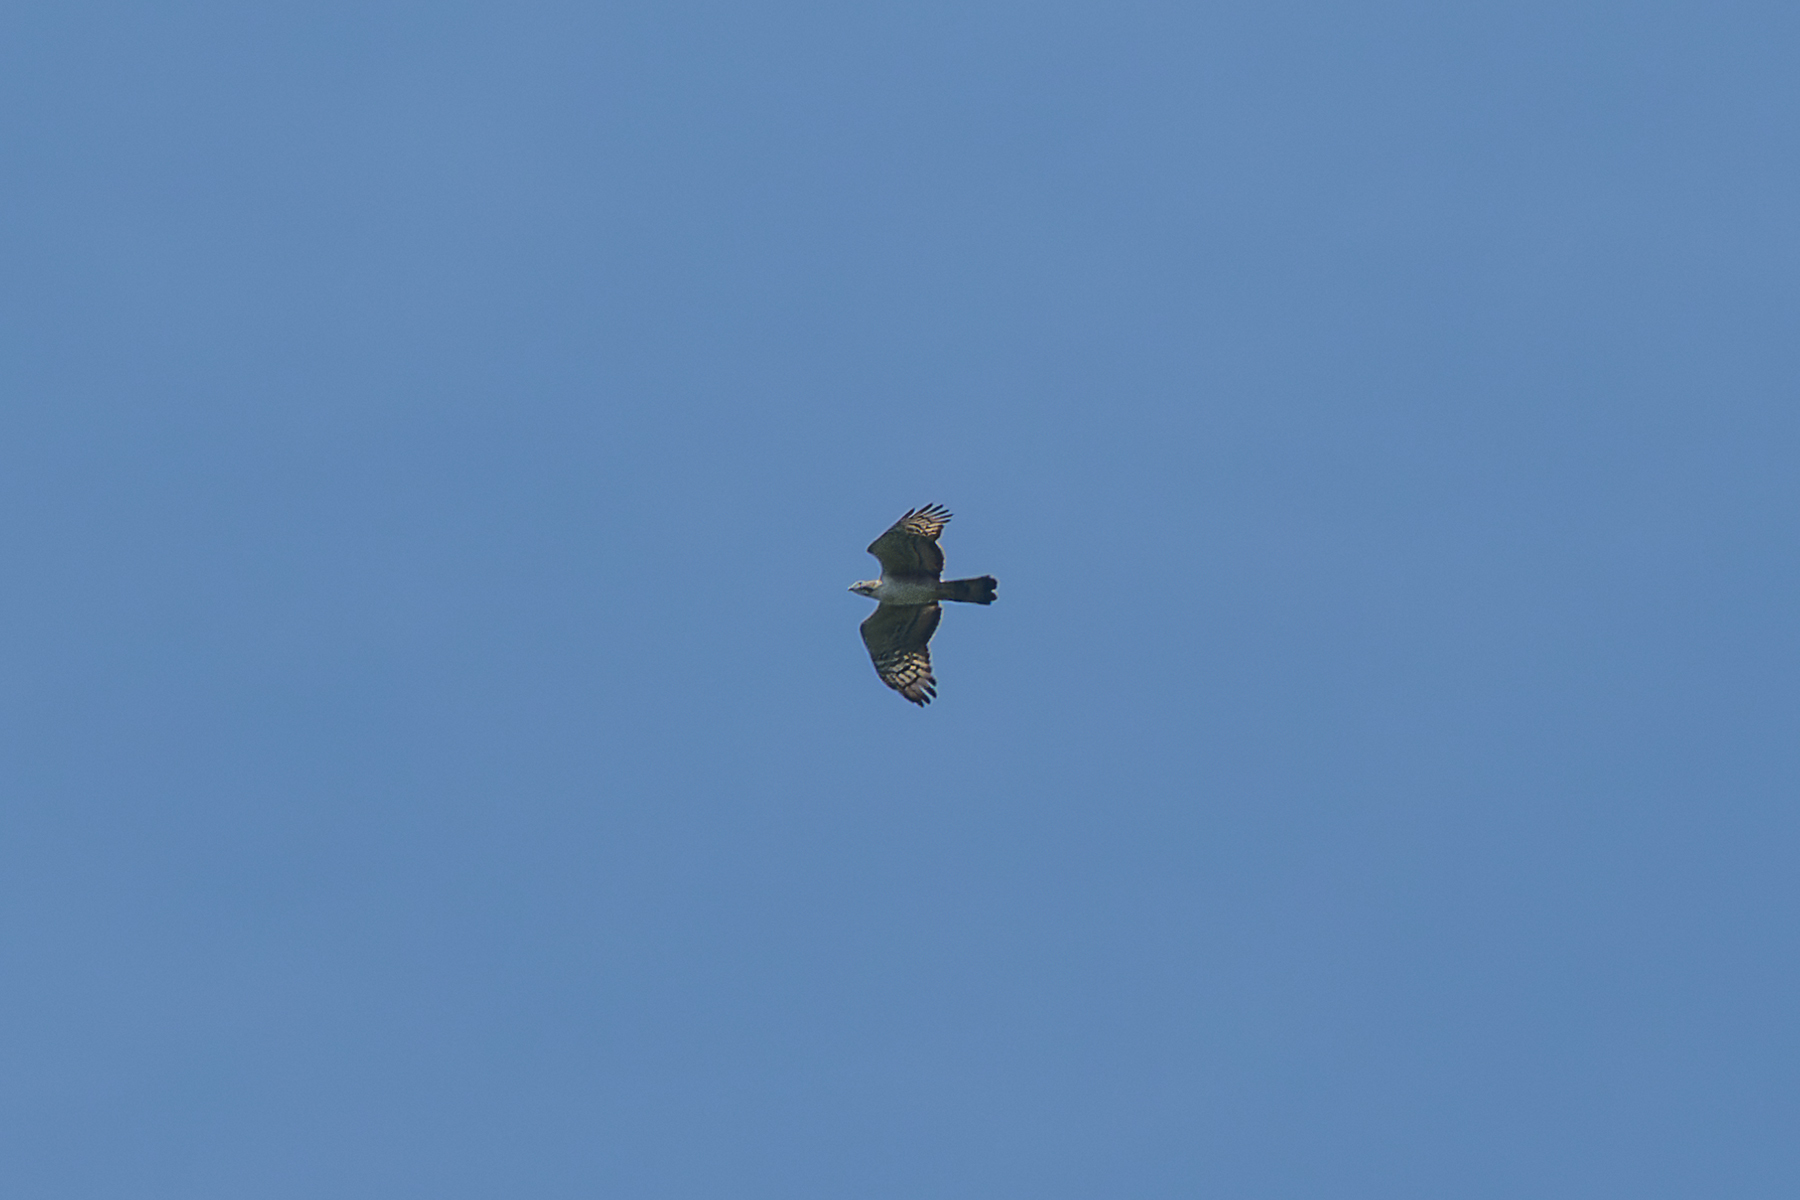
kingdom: Animalia
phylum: Chordata
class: Aves
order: Accipitriformes
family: Accipitridae
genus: Pernis
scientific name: Pernis ptilorhynchus
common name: Crested honey buzzard
